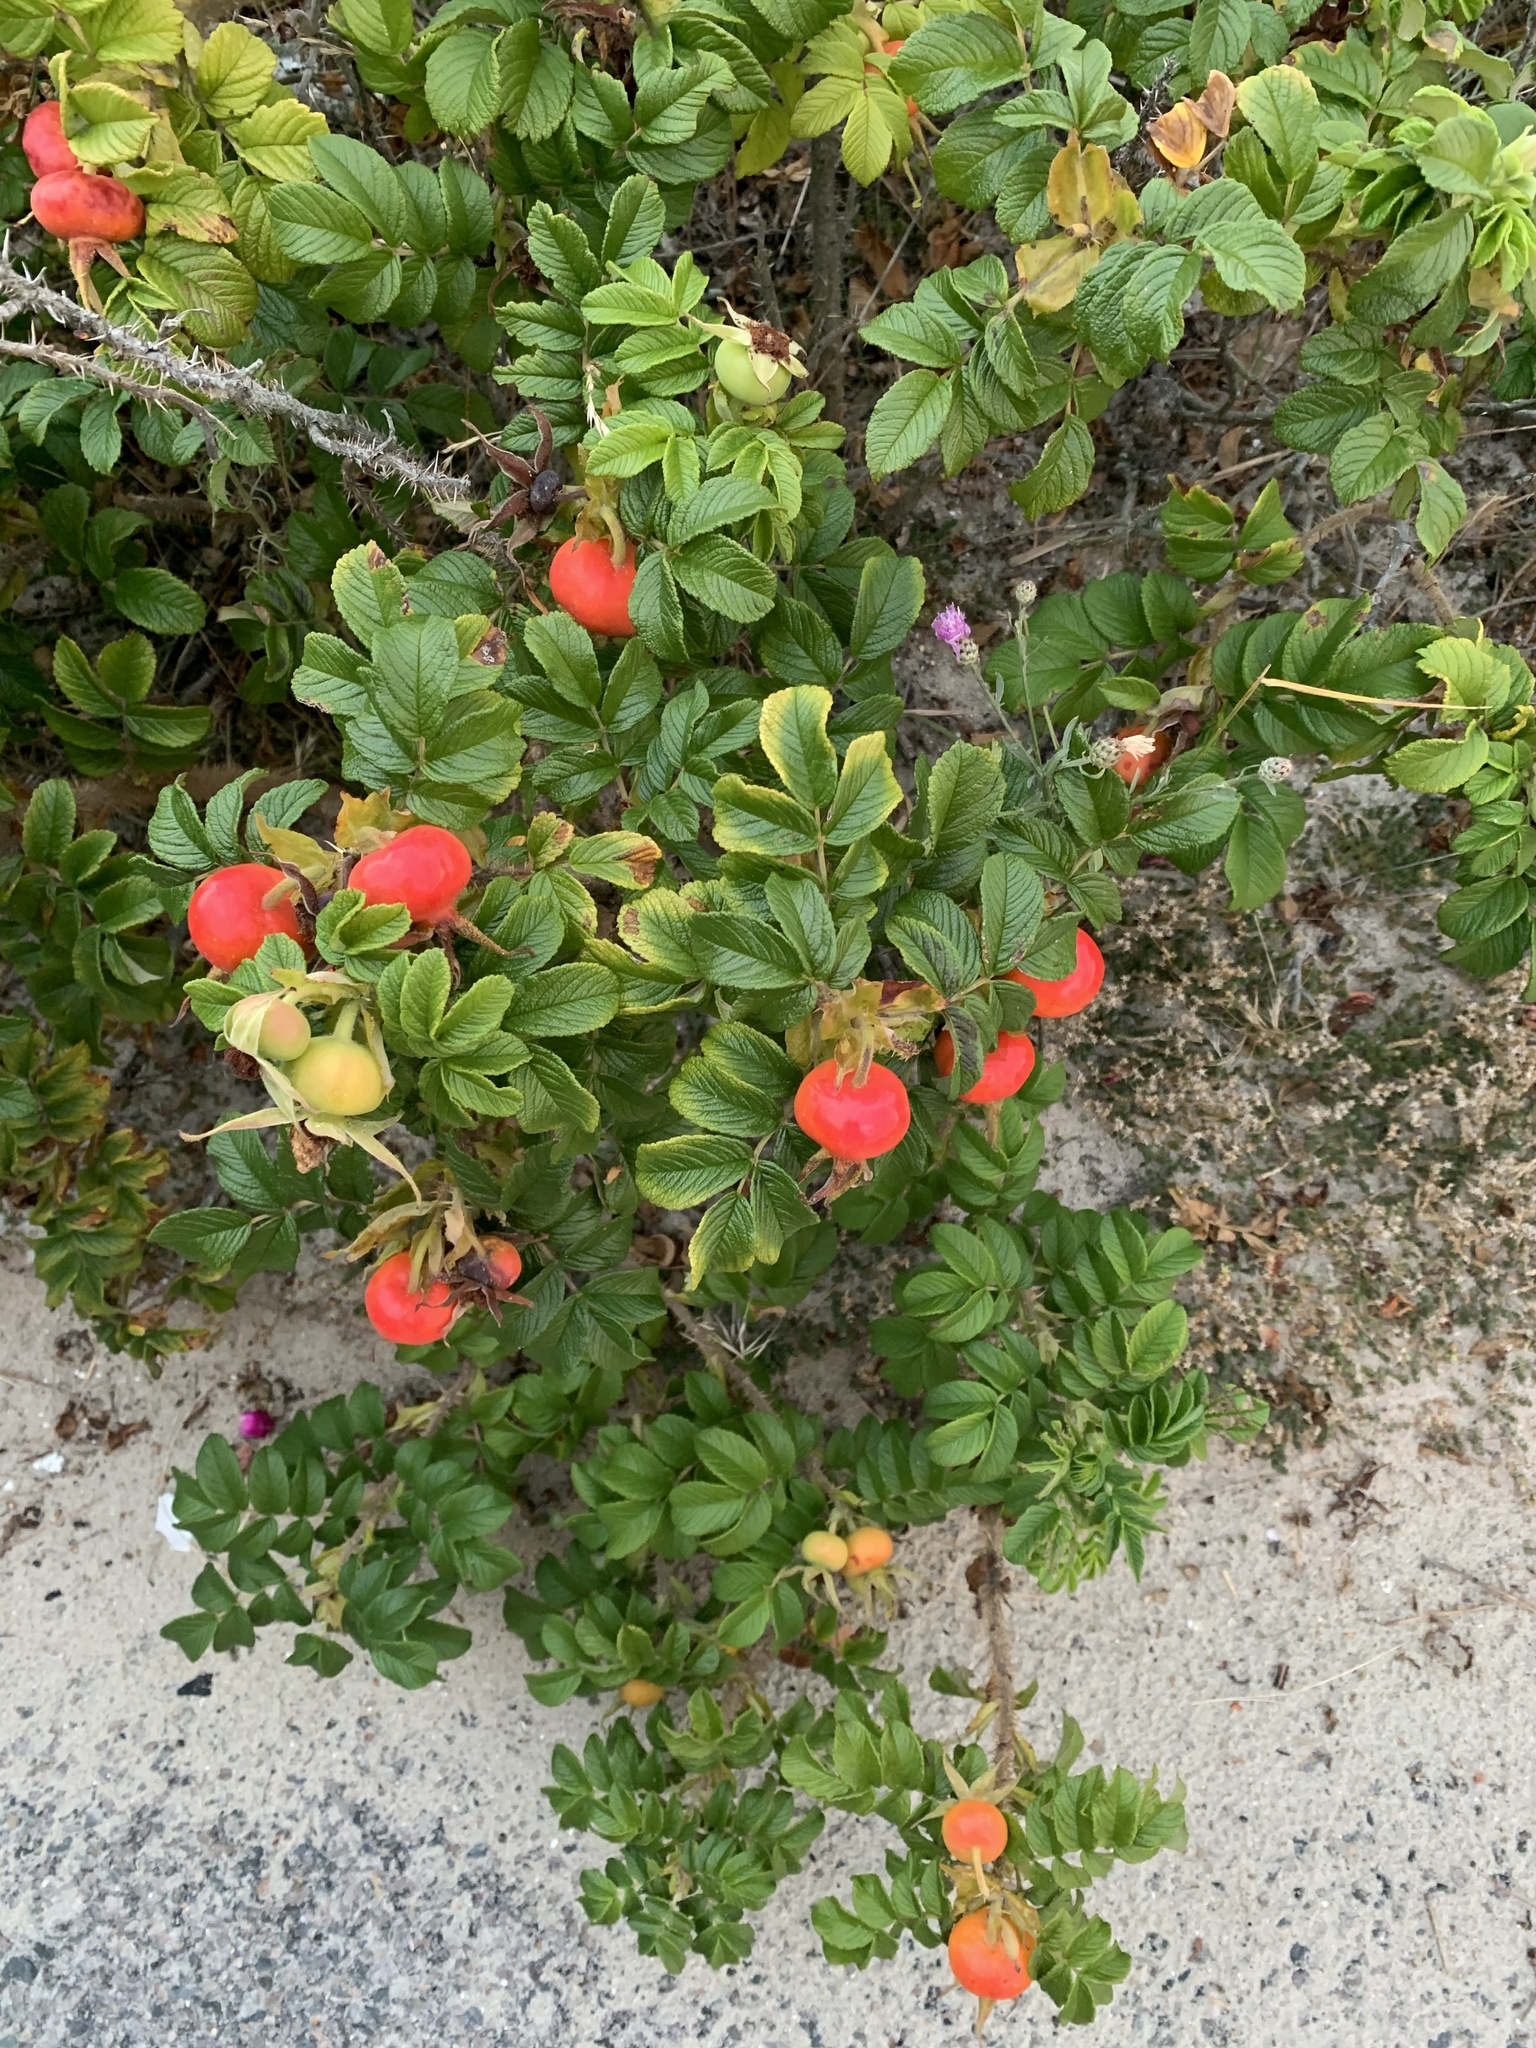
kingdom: Plantae
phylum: Tracheophyta
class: Magnoliopsida
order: Rosales
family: Rosaceae
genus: Rosa
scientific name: Rosa rugosa
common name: Japanese rose
